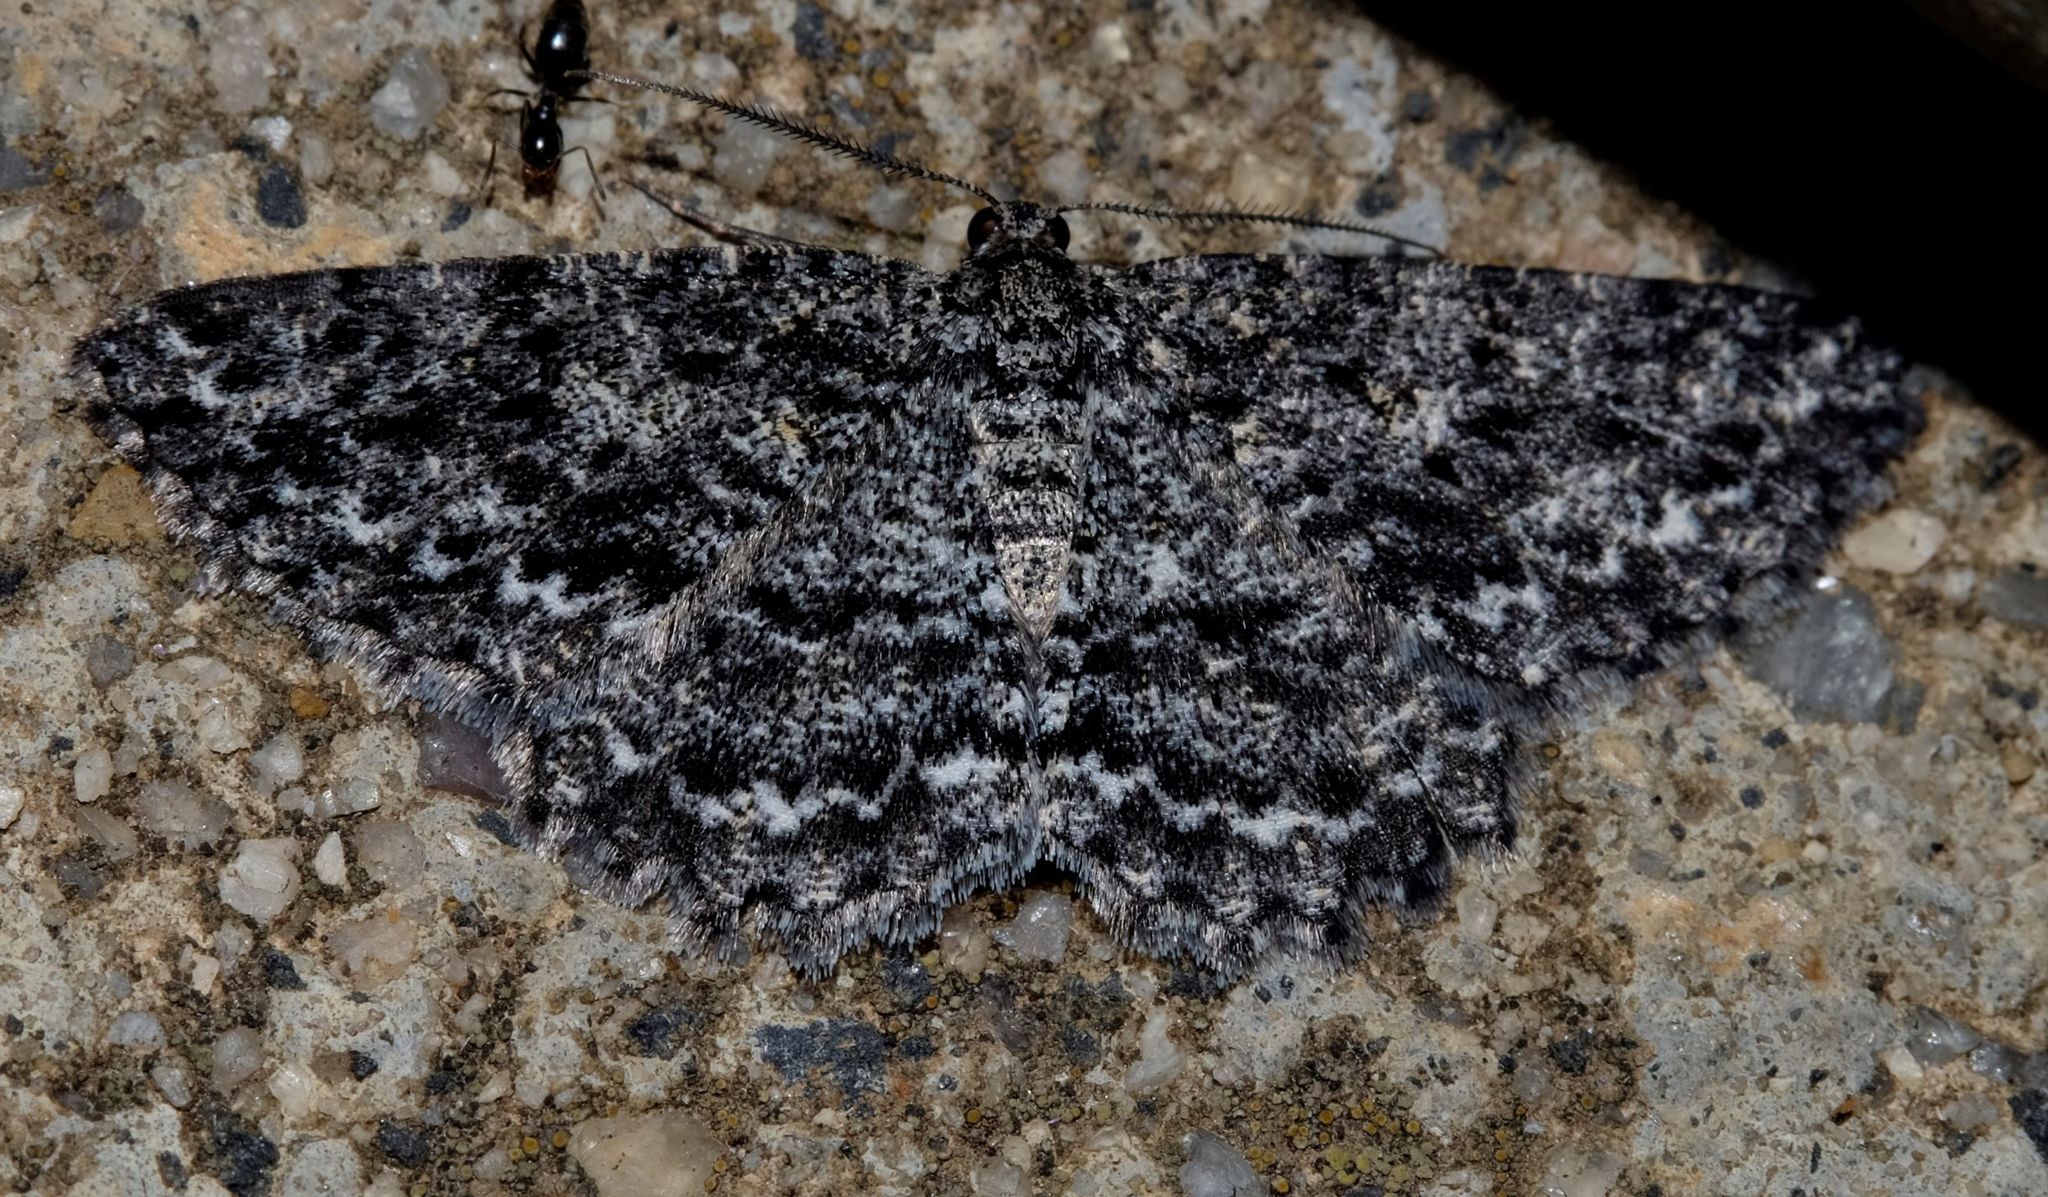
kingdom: Animalia
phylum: Arthropoda
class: Insecta
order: Lepidoptera
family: Geometridae
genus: Thallogama
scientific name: Thallogama nigraria
